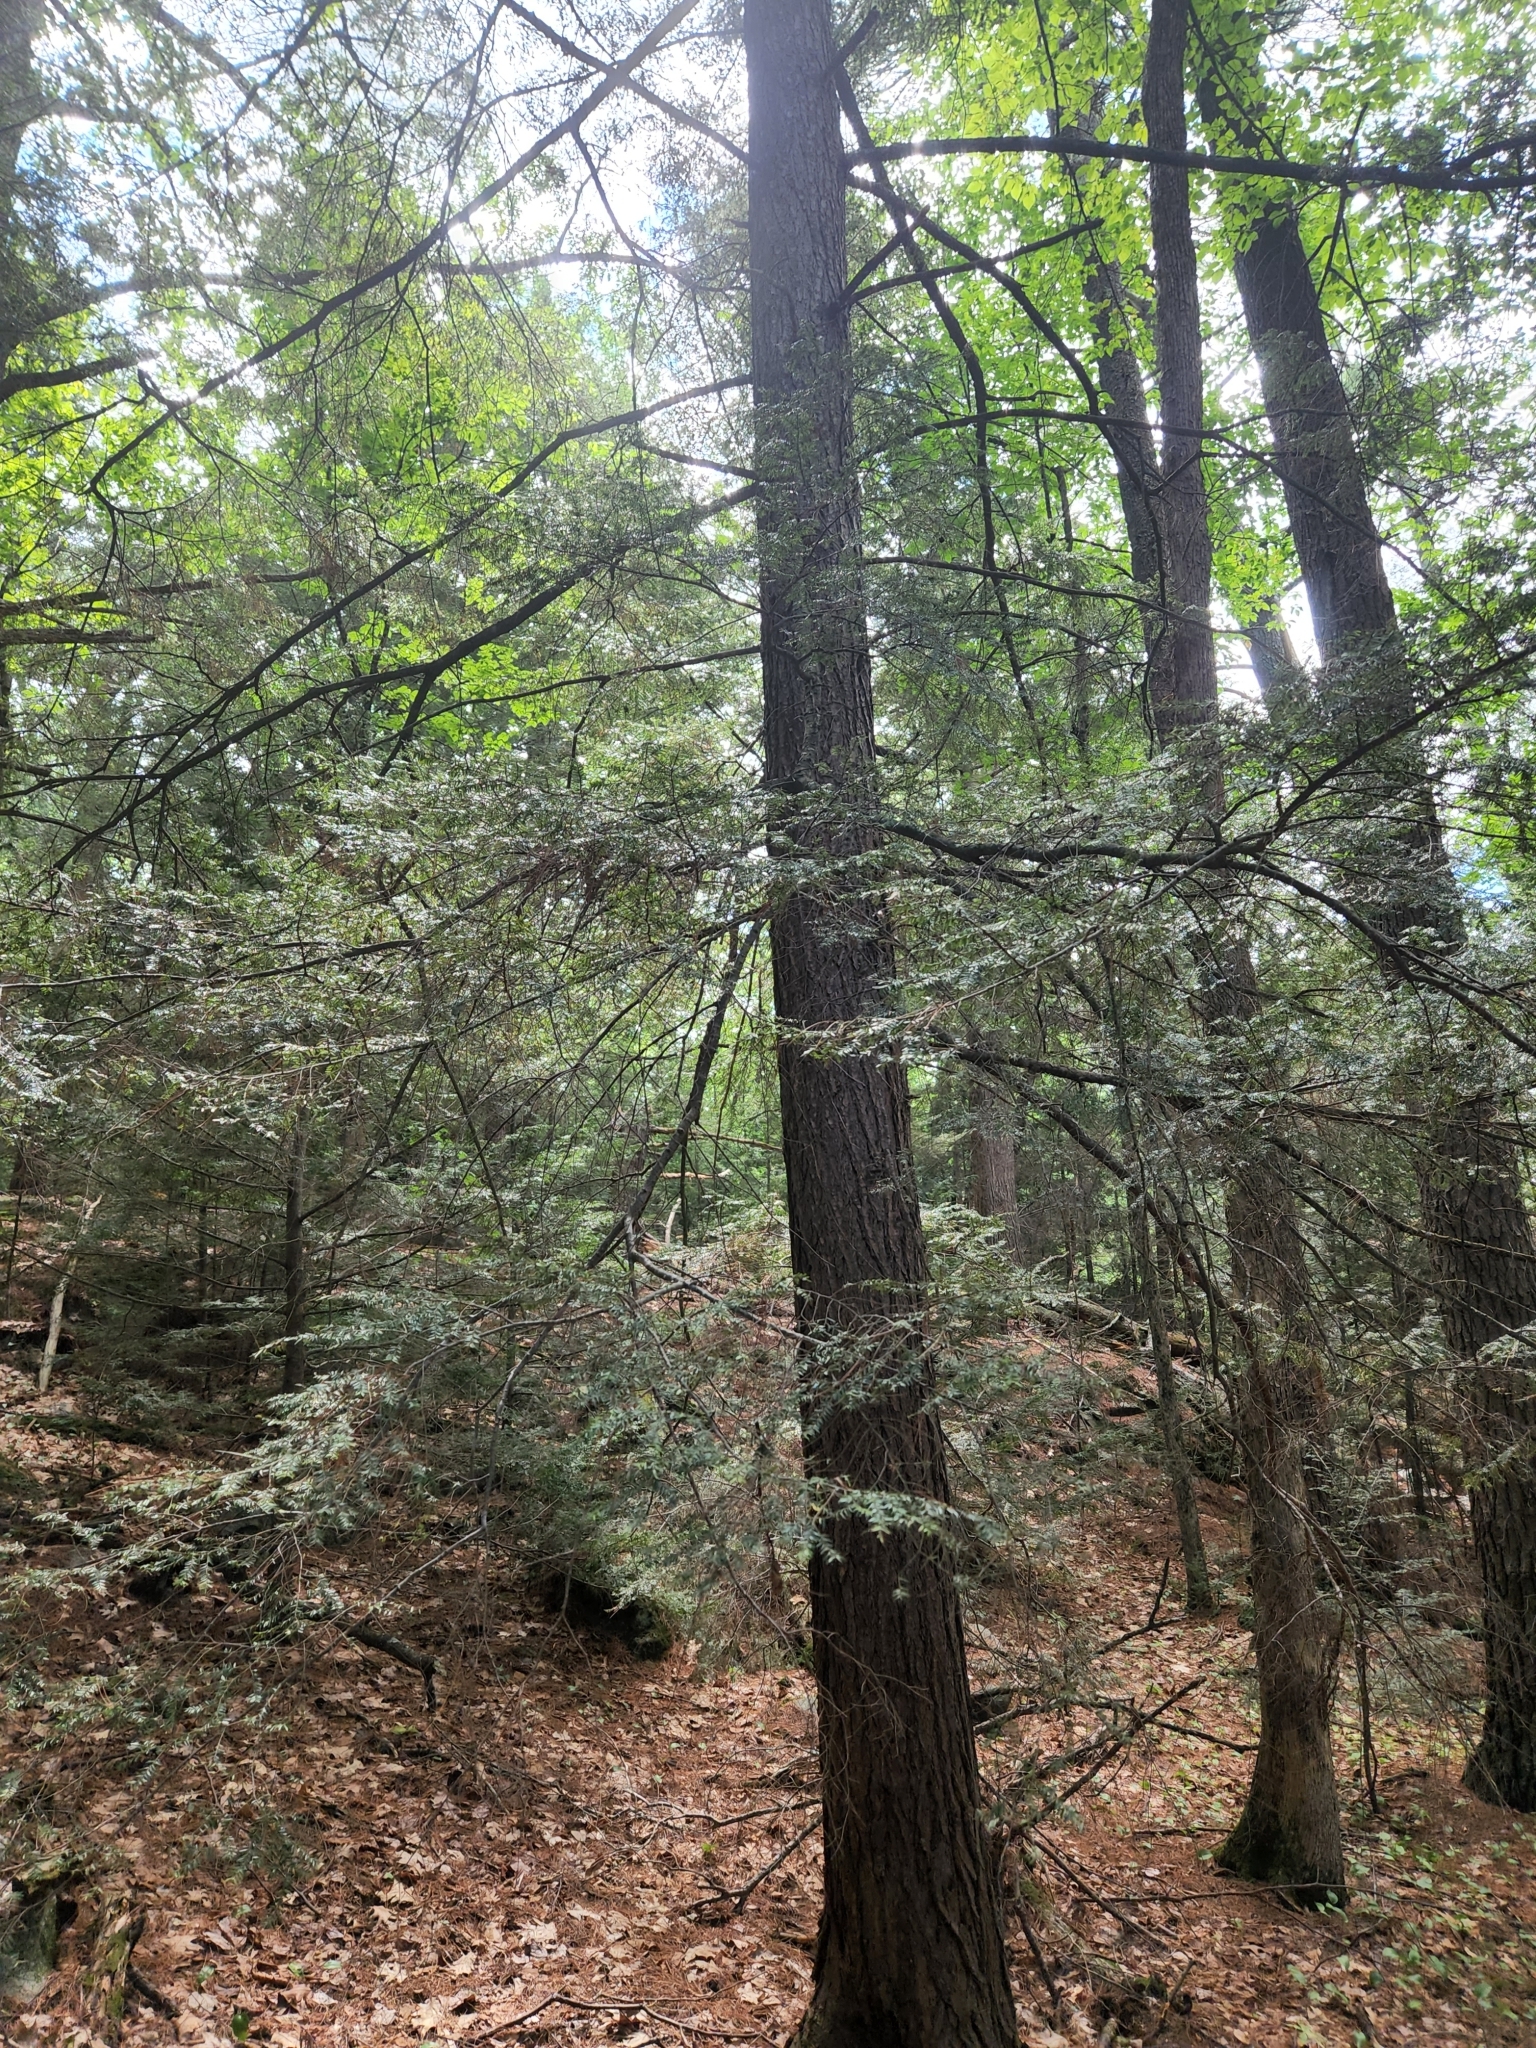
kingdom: Plantae
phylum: Tracheophyta
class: Pinopsida
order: Pinales
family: Pinaceae
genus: Tsuga
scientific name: Tsuga canadensis
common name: Eastern hemlock
